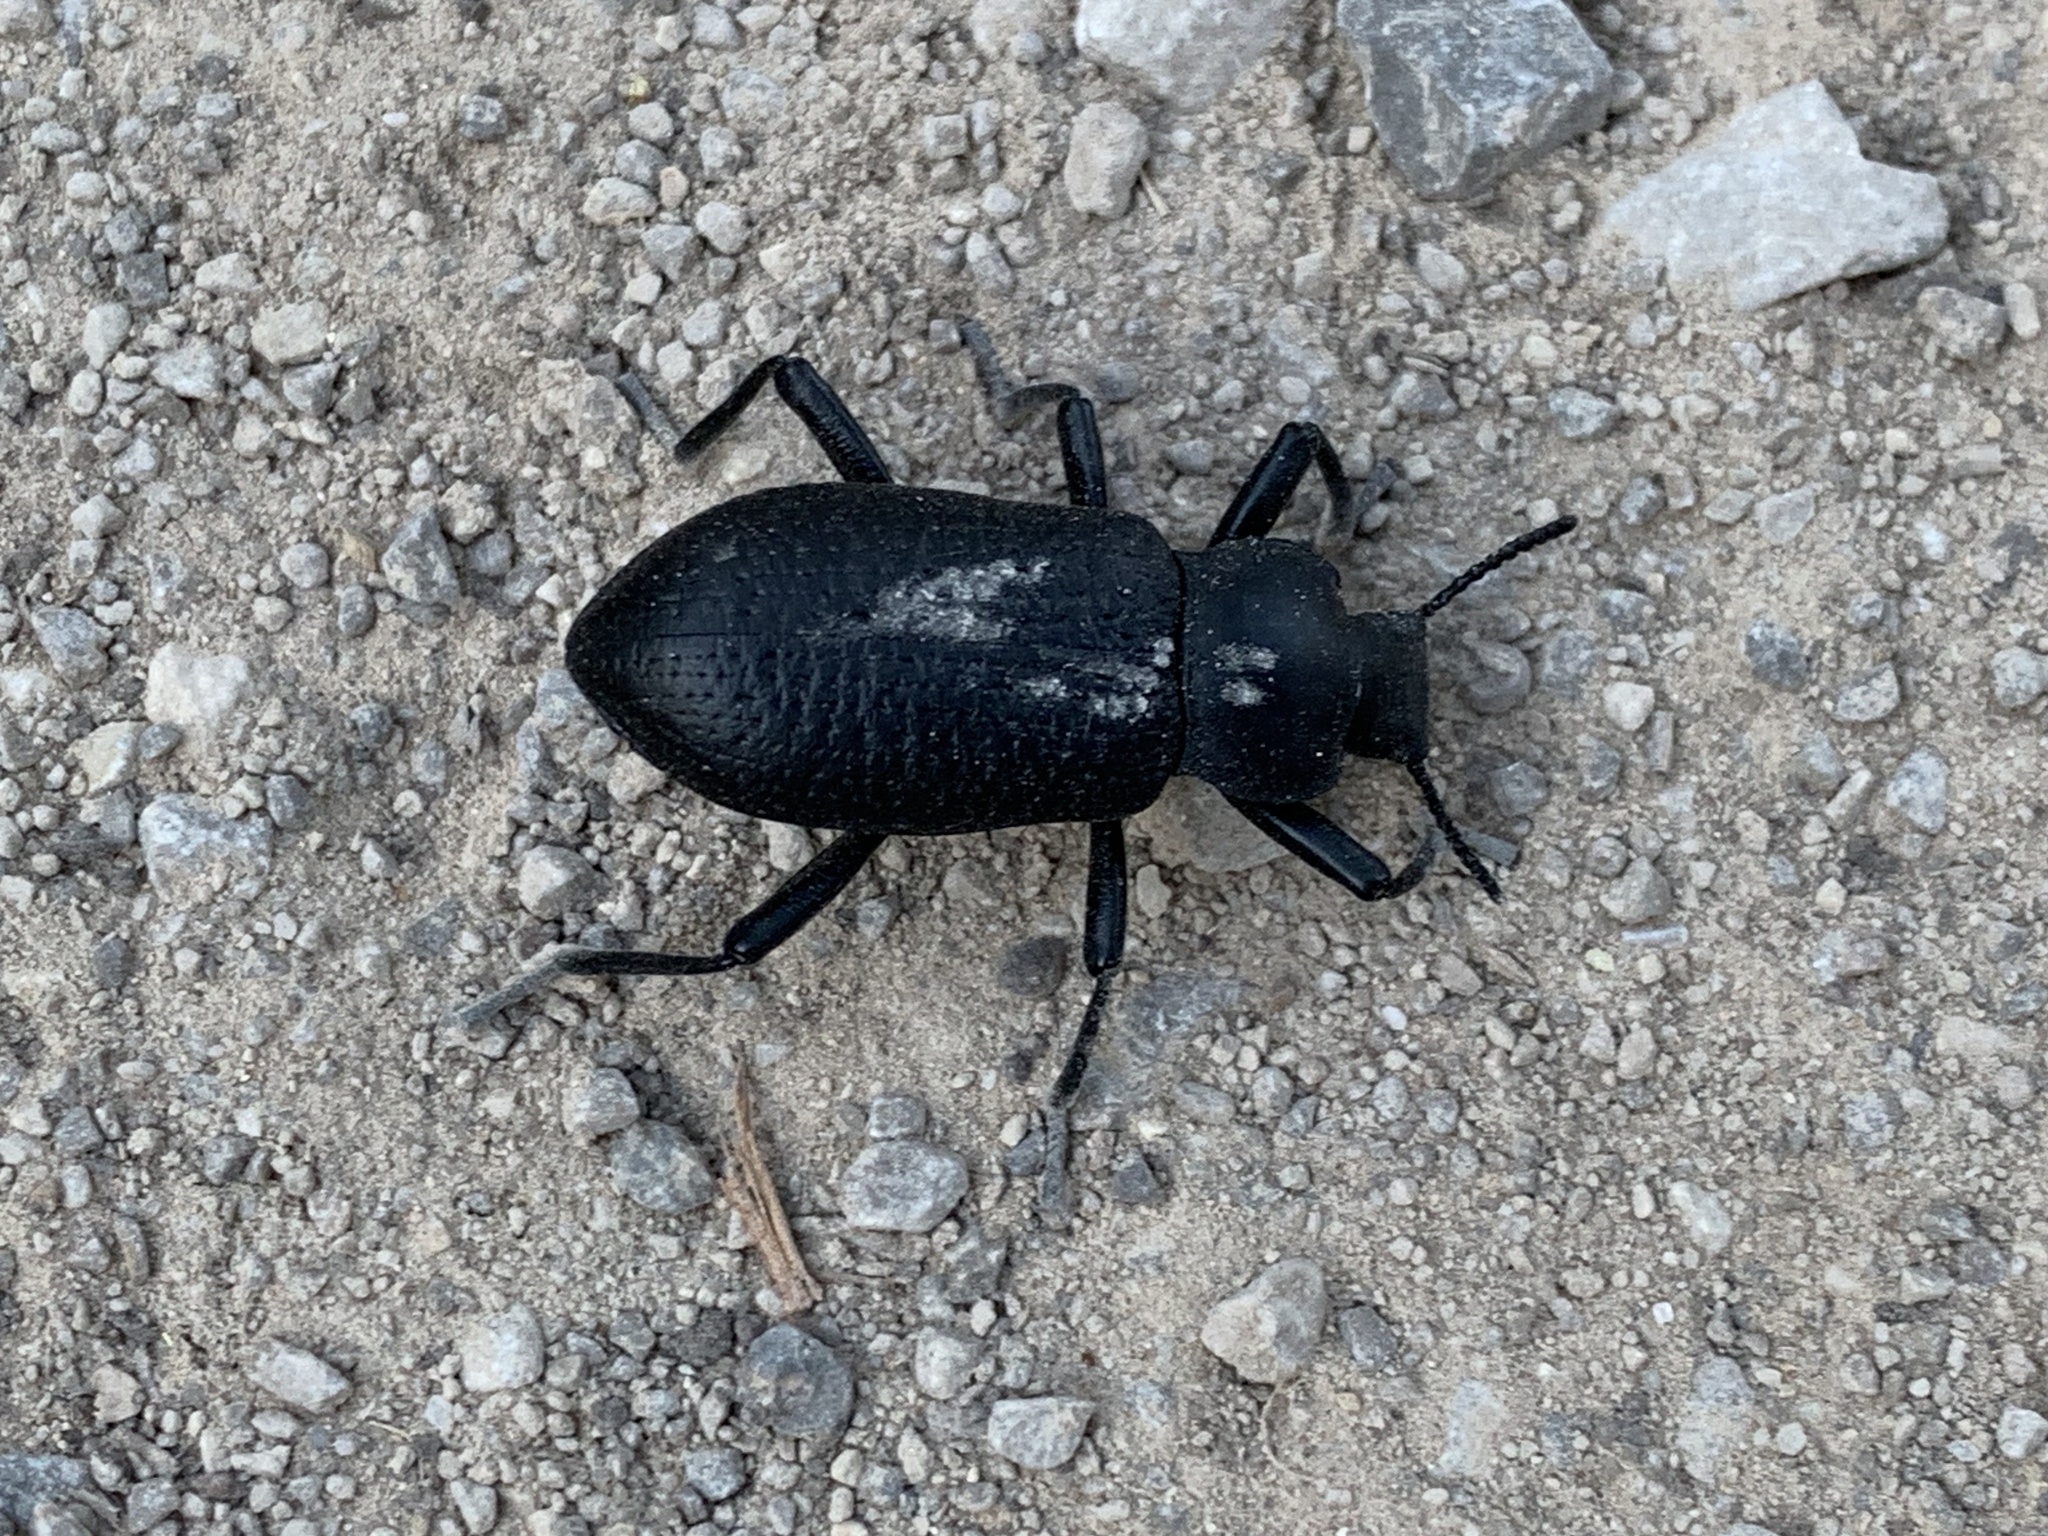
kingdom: Animalia
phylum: Arthropoda
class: Insecta
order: Coleoptera
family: Tenebrionidae
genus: Iphthiminus
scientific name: Iphthiminus lewisii
